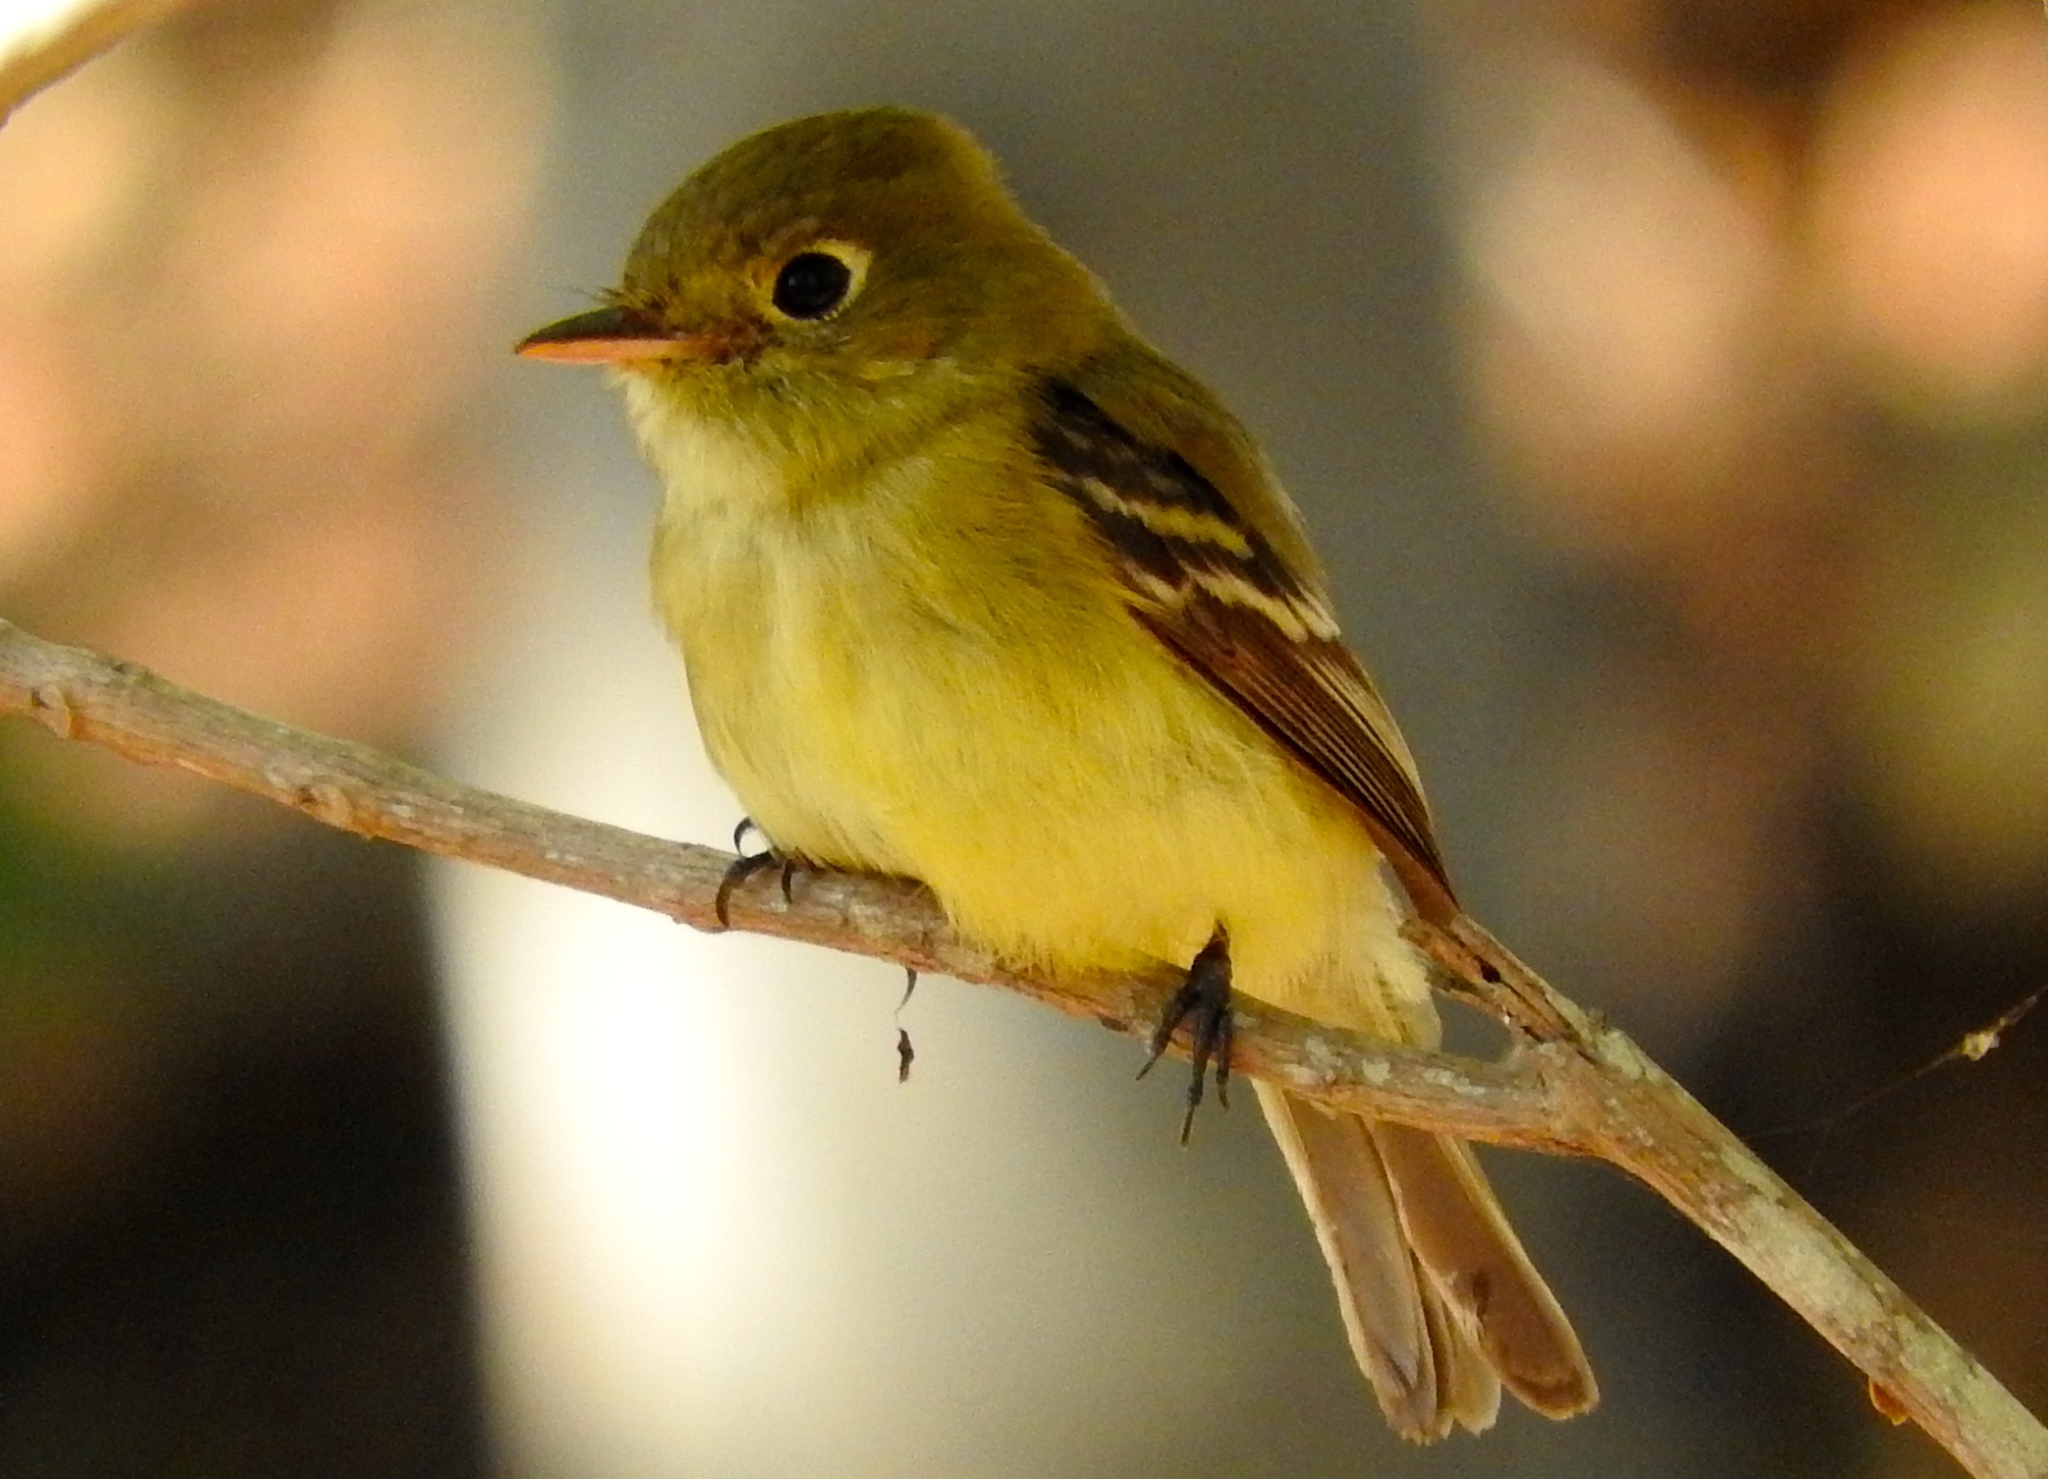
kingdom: Animalia
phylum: Chordata
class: Aves
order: Passeriformes
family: Tyrannidae
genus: Empidonax
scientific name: Empidonax difficilis
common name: Pacific-slope flycatcher
